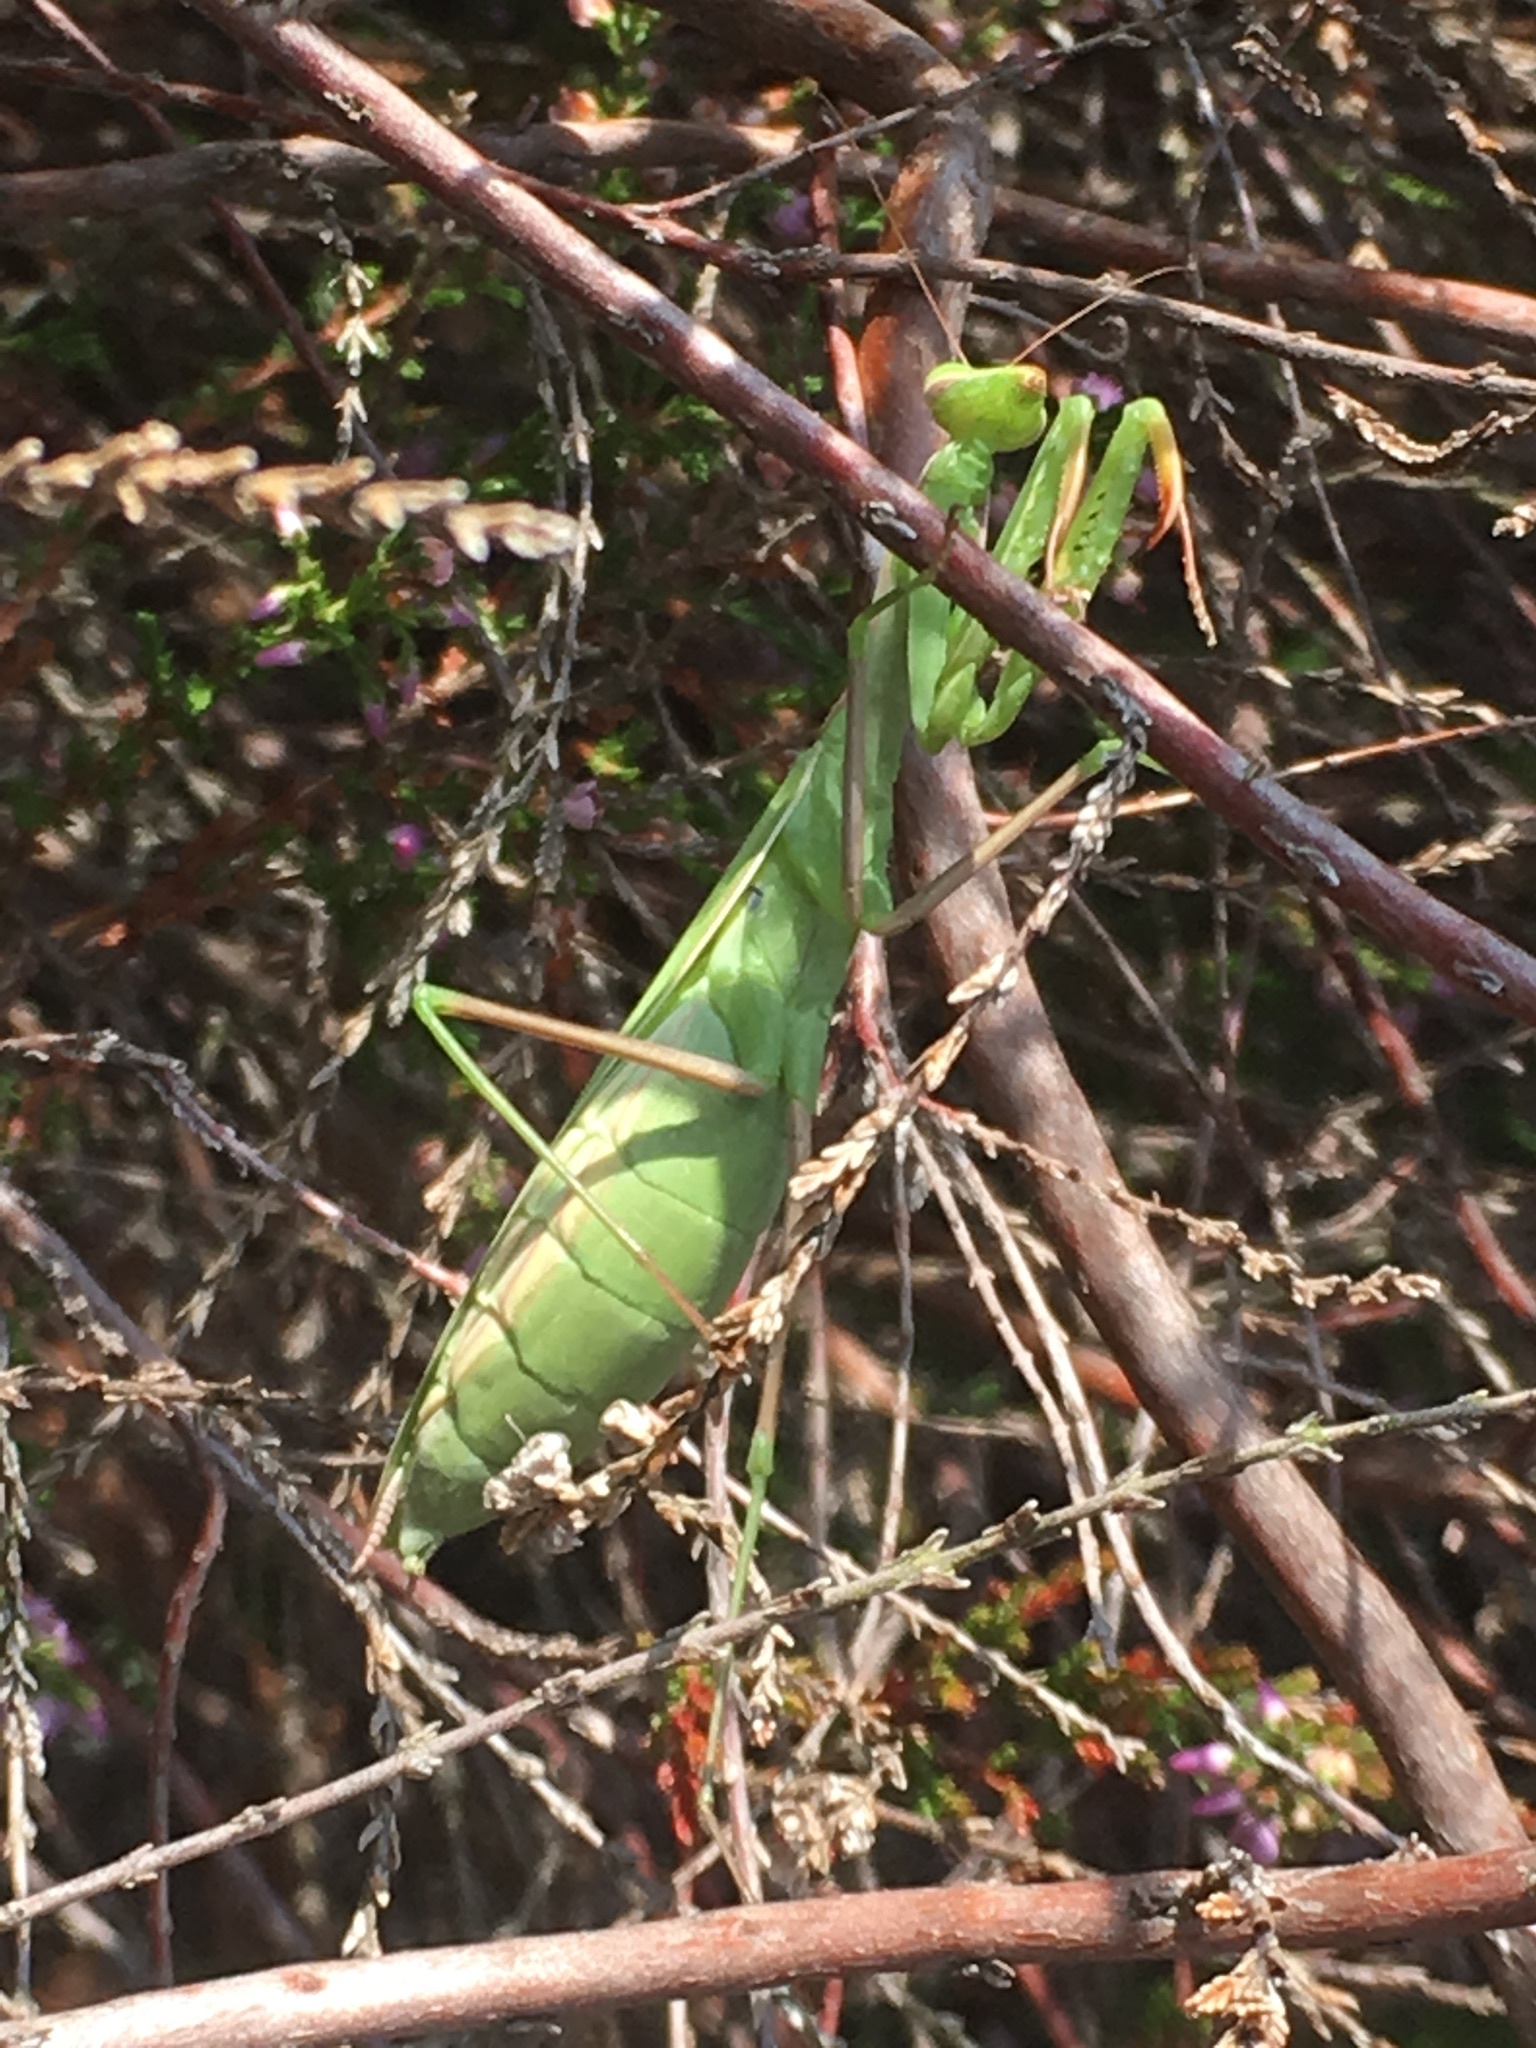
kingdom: Animalia
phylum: Arthropoda
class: Insecta
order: Mantodea
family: Mantidae
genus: Mantis
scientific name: Mantis religiosa
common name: Praying mantis
